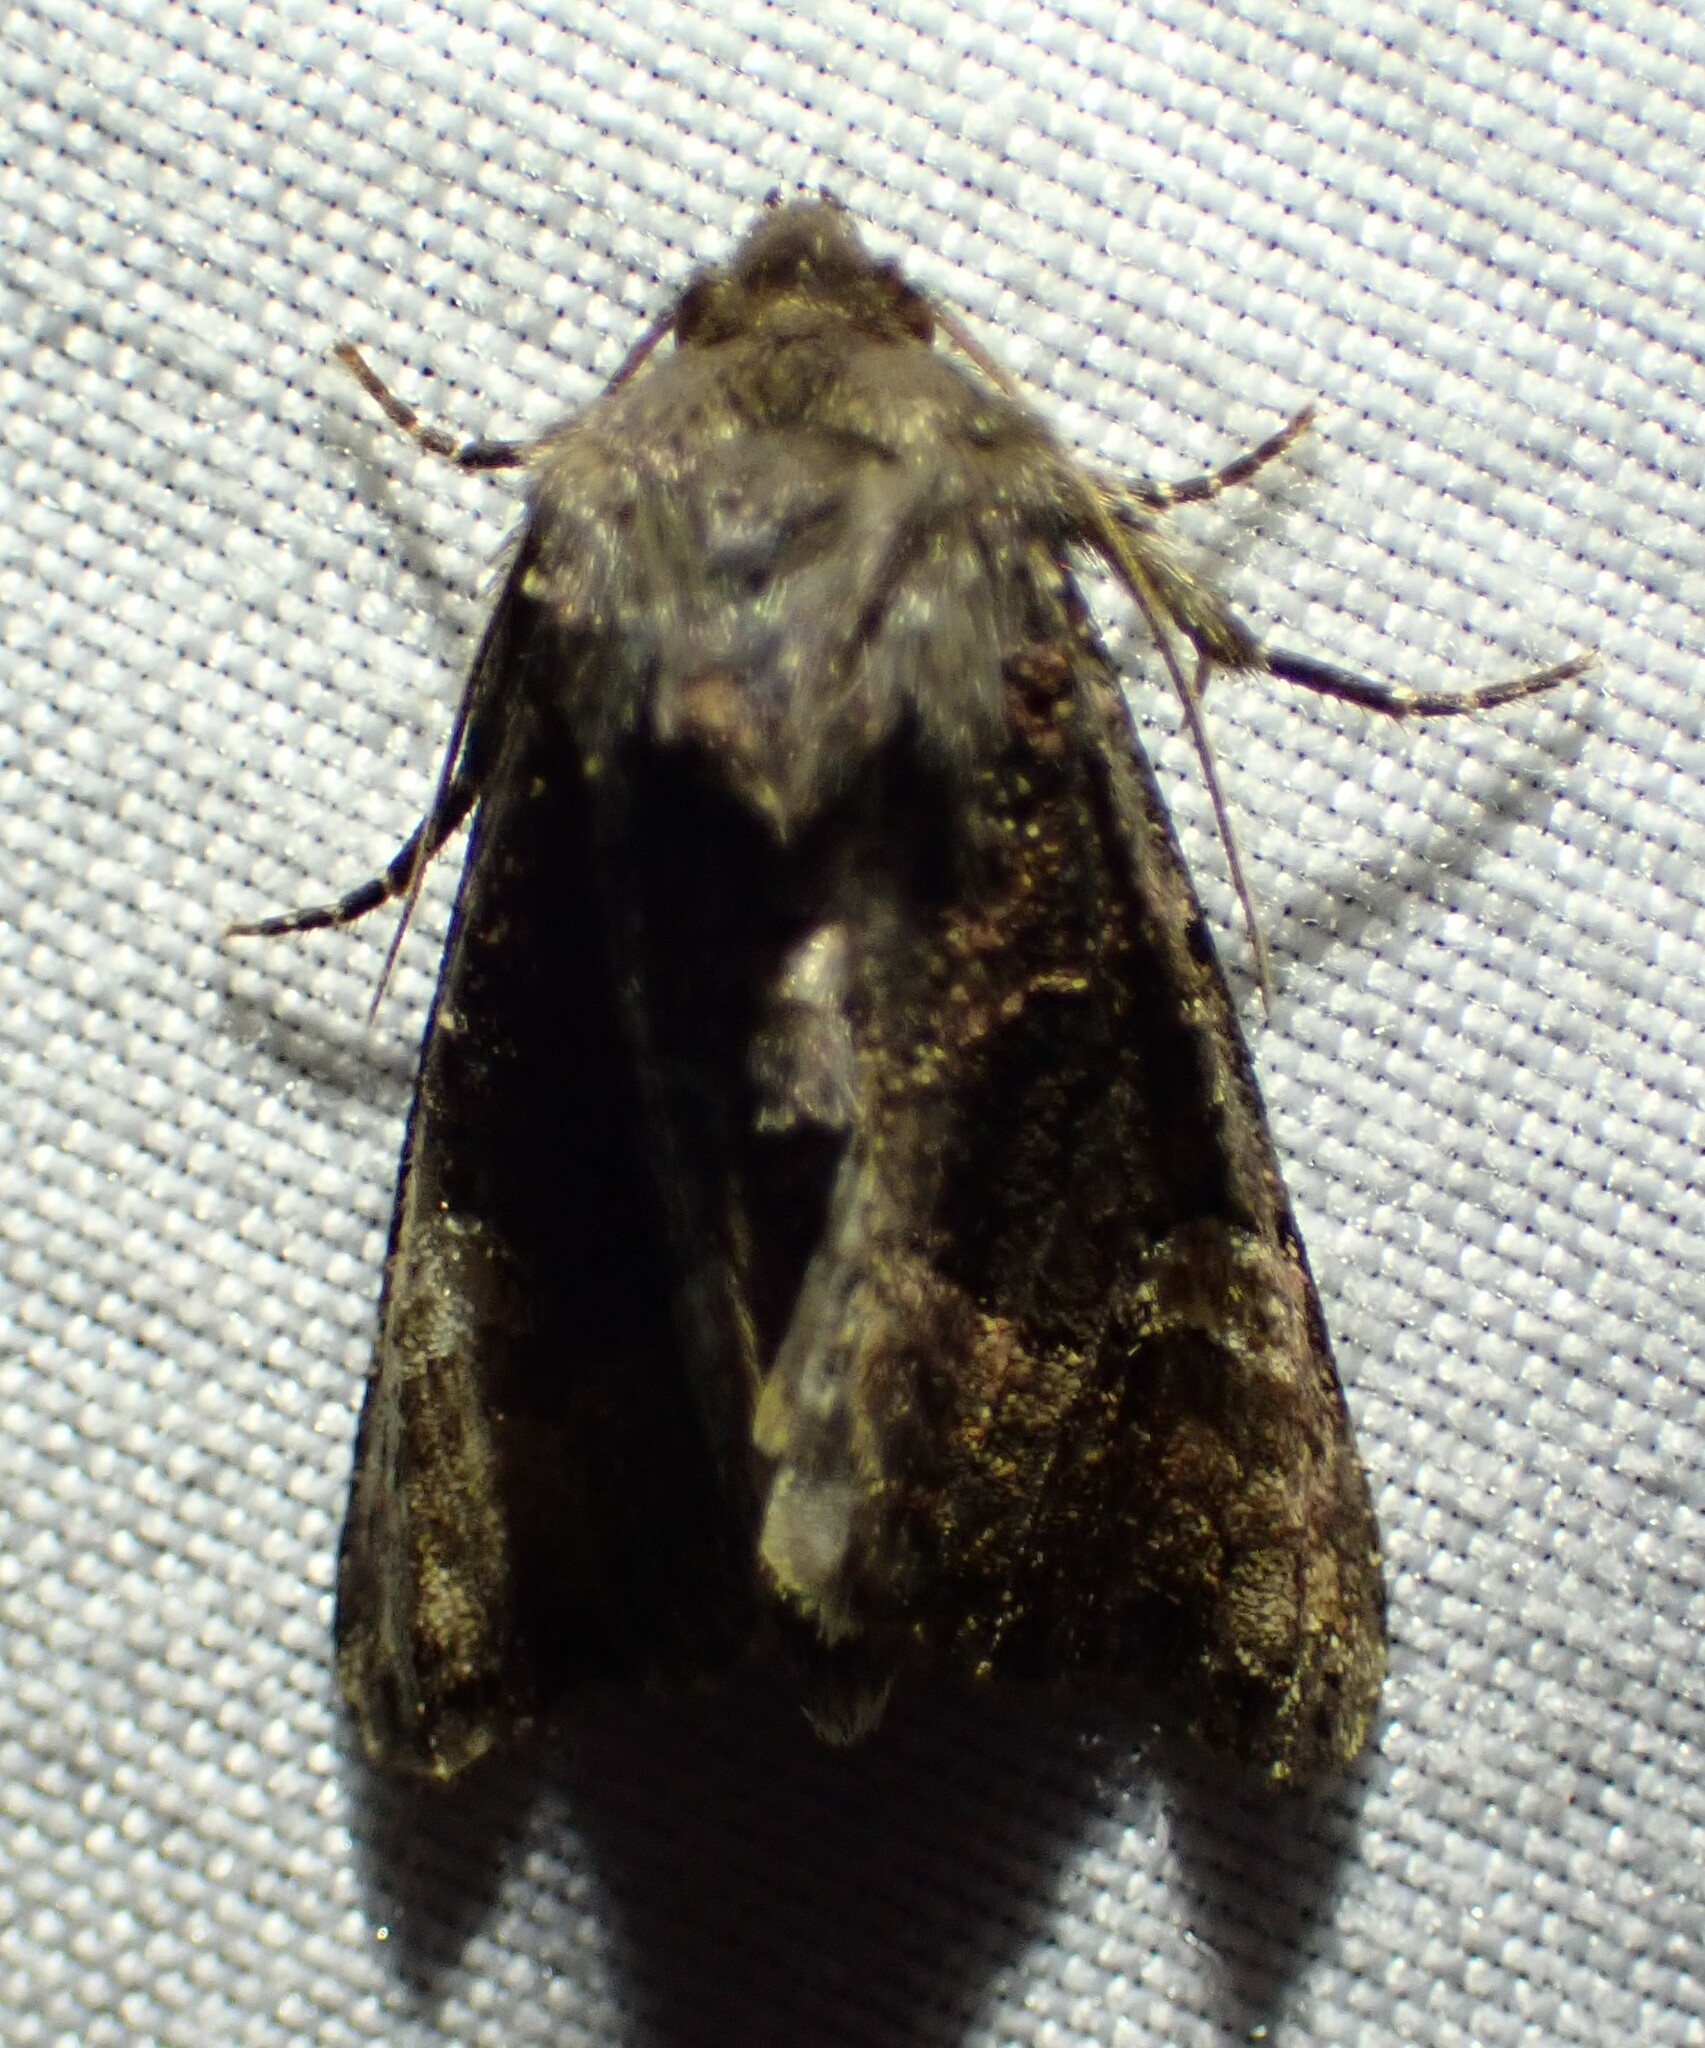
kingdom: Animalia
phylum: Arthropoda
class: Insecta
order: Lepidoptera
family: Noctuidae
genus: Euplexia
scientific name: Euplexia benesimilis
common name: American angle shades
